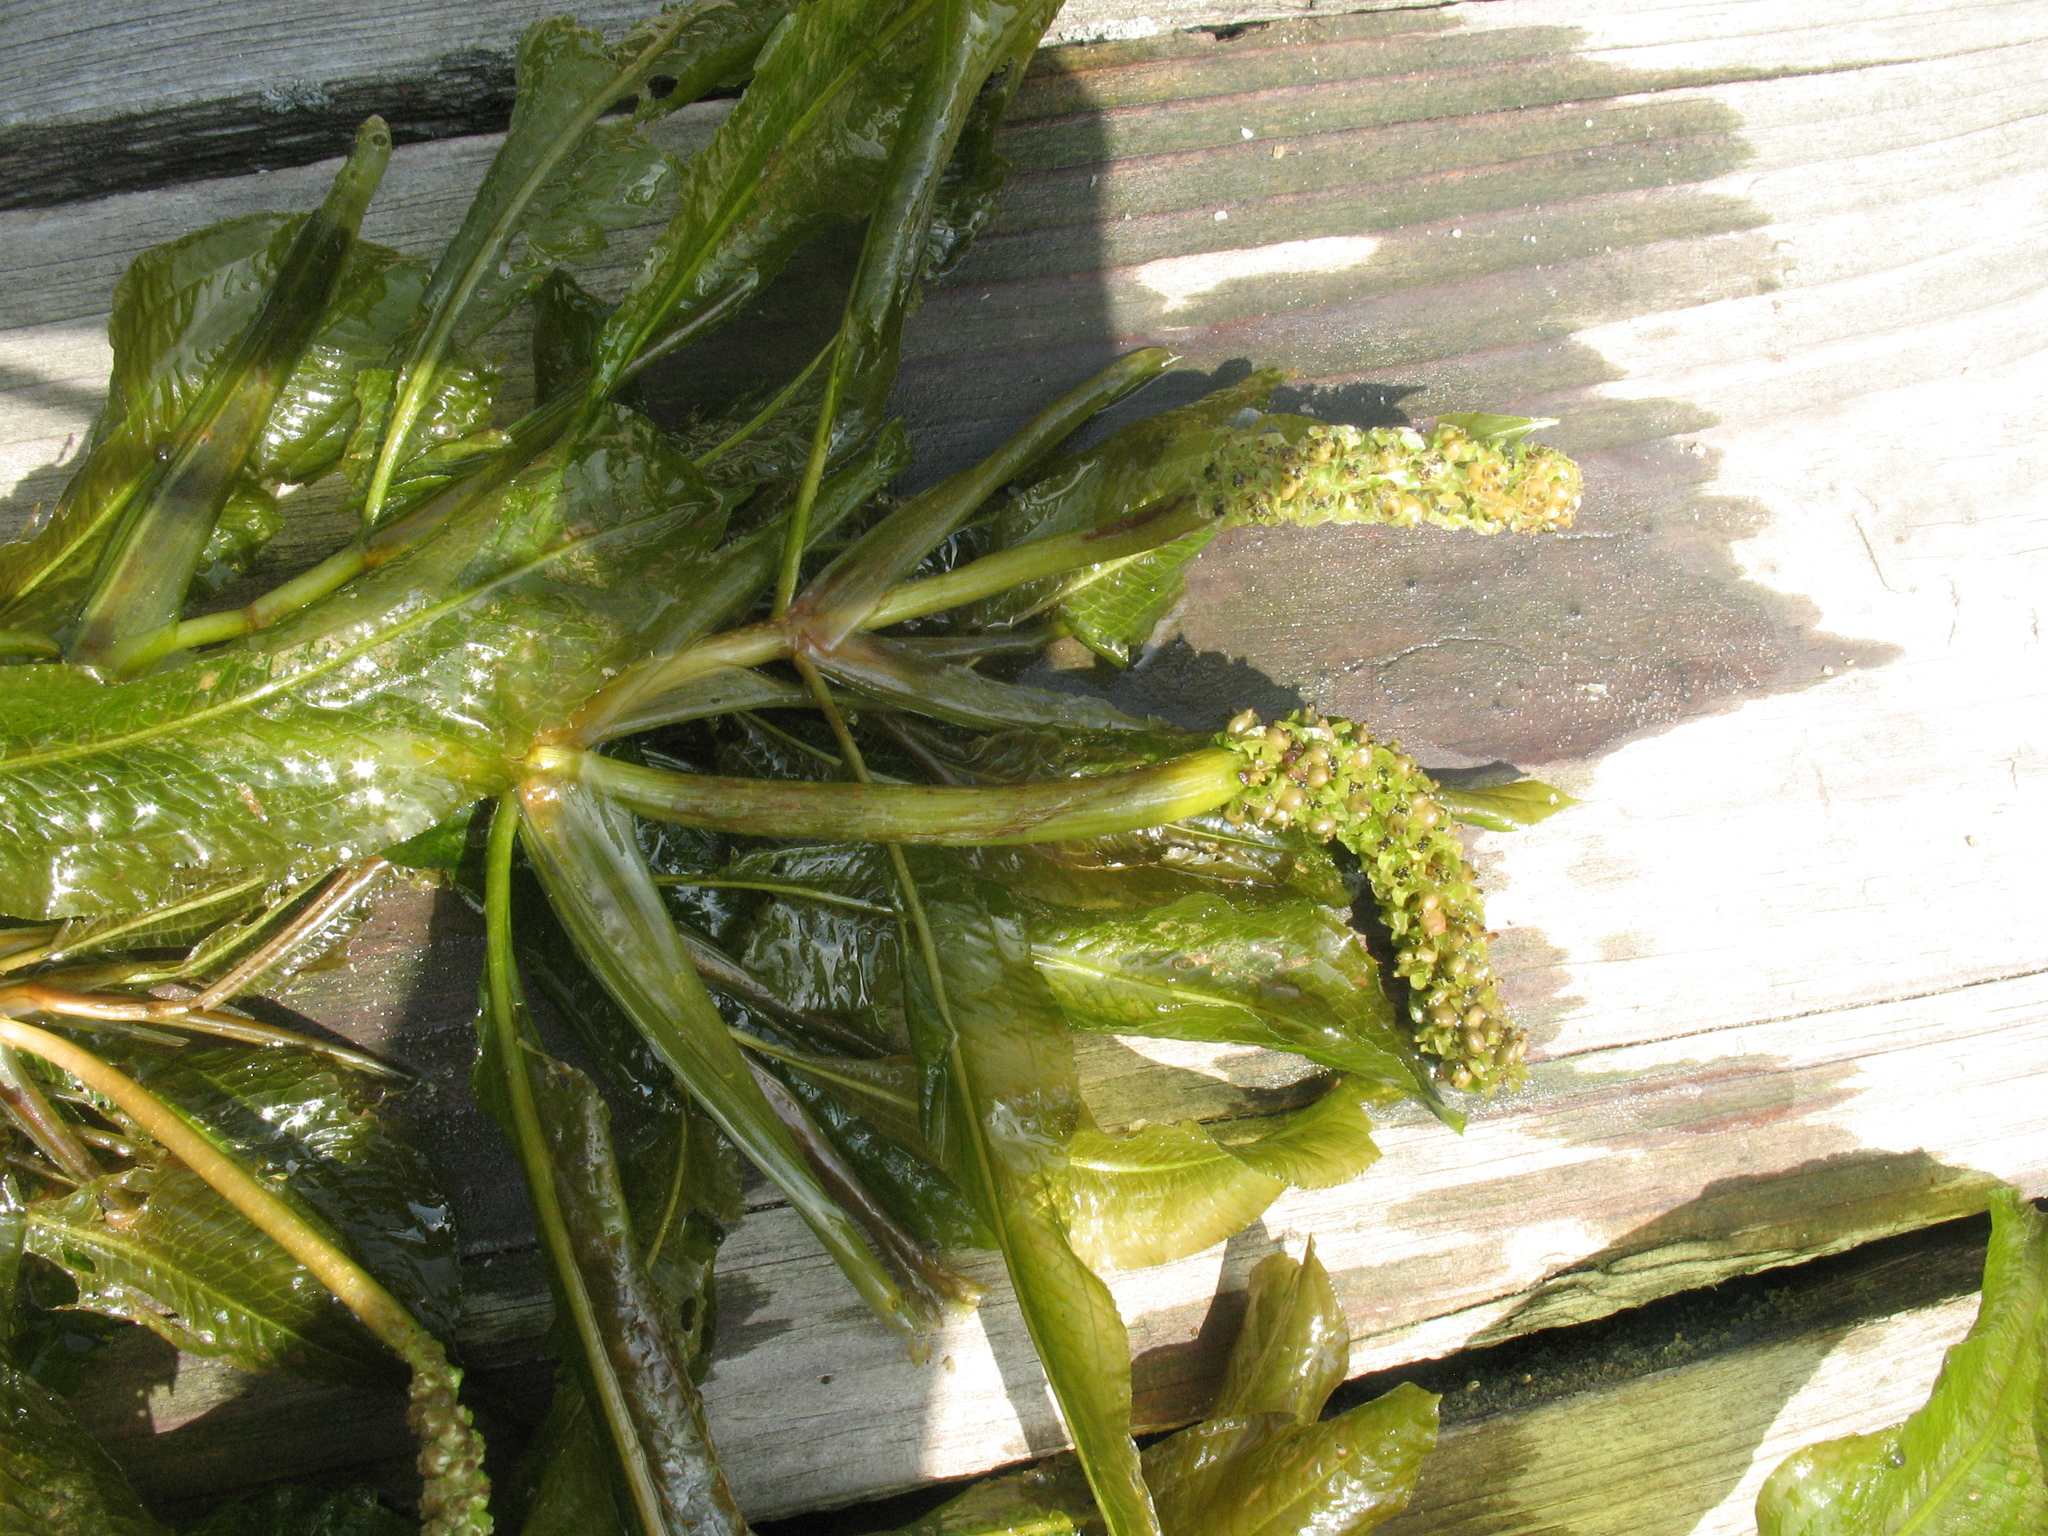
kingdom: Plantae
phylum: Tracheophyta
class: Liliopsida
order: Alismatales
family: Potamogetonaceae
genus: Potamogeton
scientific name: Potamogeton lucens
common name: Shining pondweed
